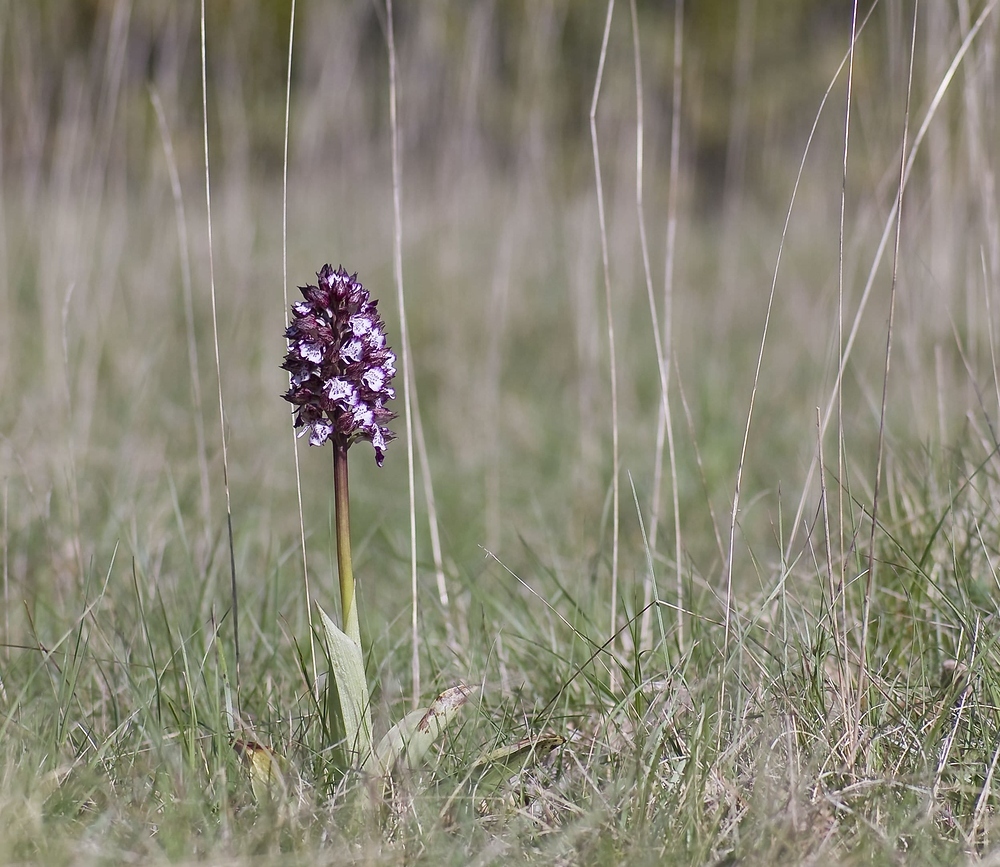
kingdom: Plantae
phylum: Tracheophyta
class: Liliopsida
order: Asparagales
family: Orchidaceae
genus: Orchis
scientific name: Orchis purpurea
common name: Lady orchid
